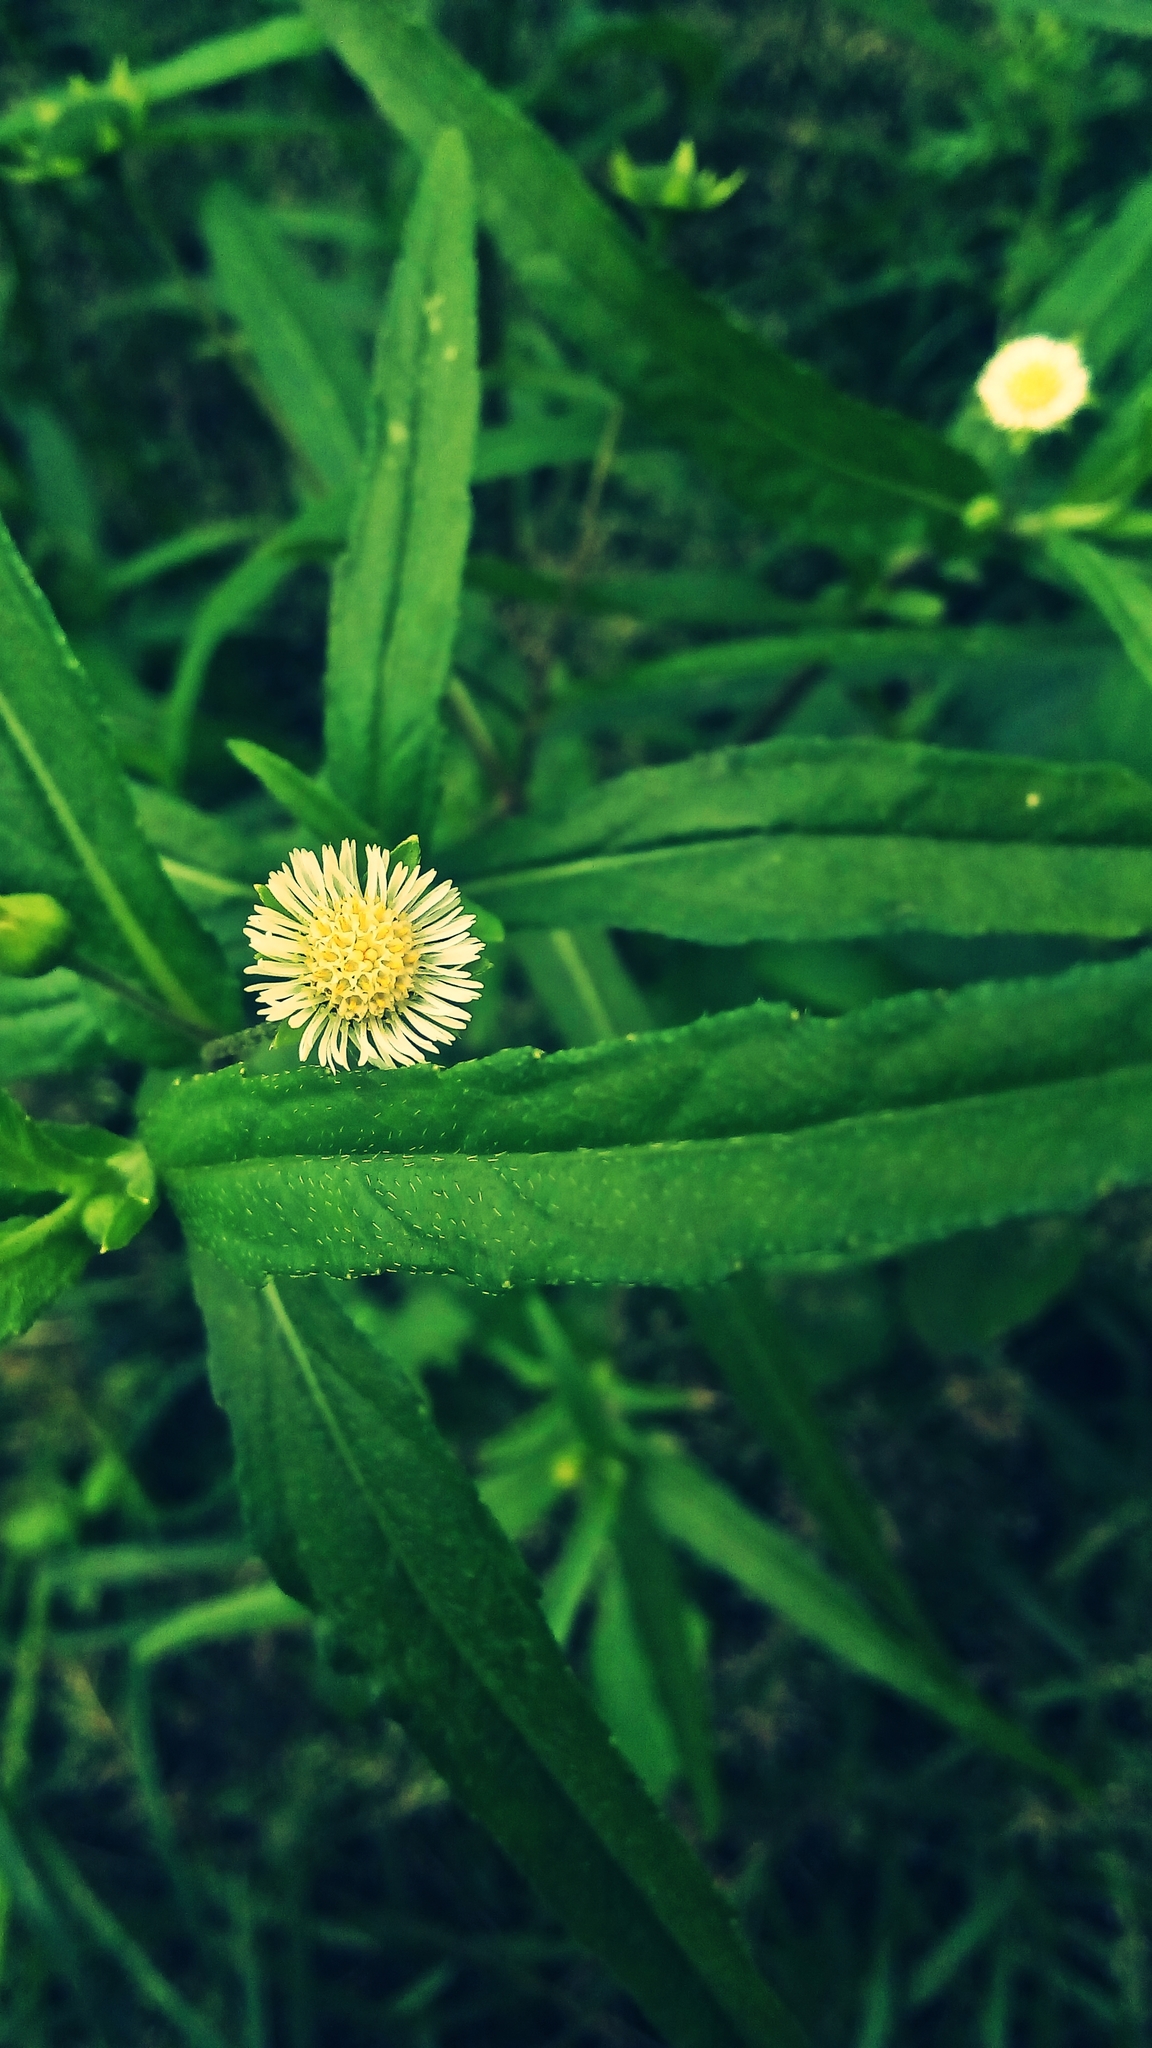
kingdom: Plantae
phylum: Tracheophyta
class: Magnoliopsida
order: Asterales
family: Asteraceae
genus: Eclipta
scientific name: Eclipta prostrata
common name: False daisy
